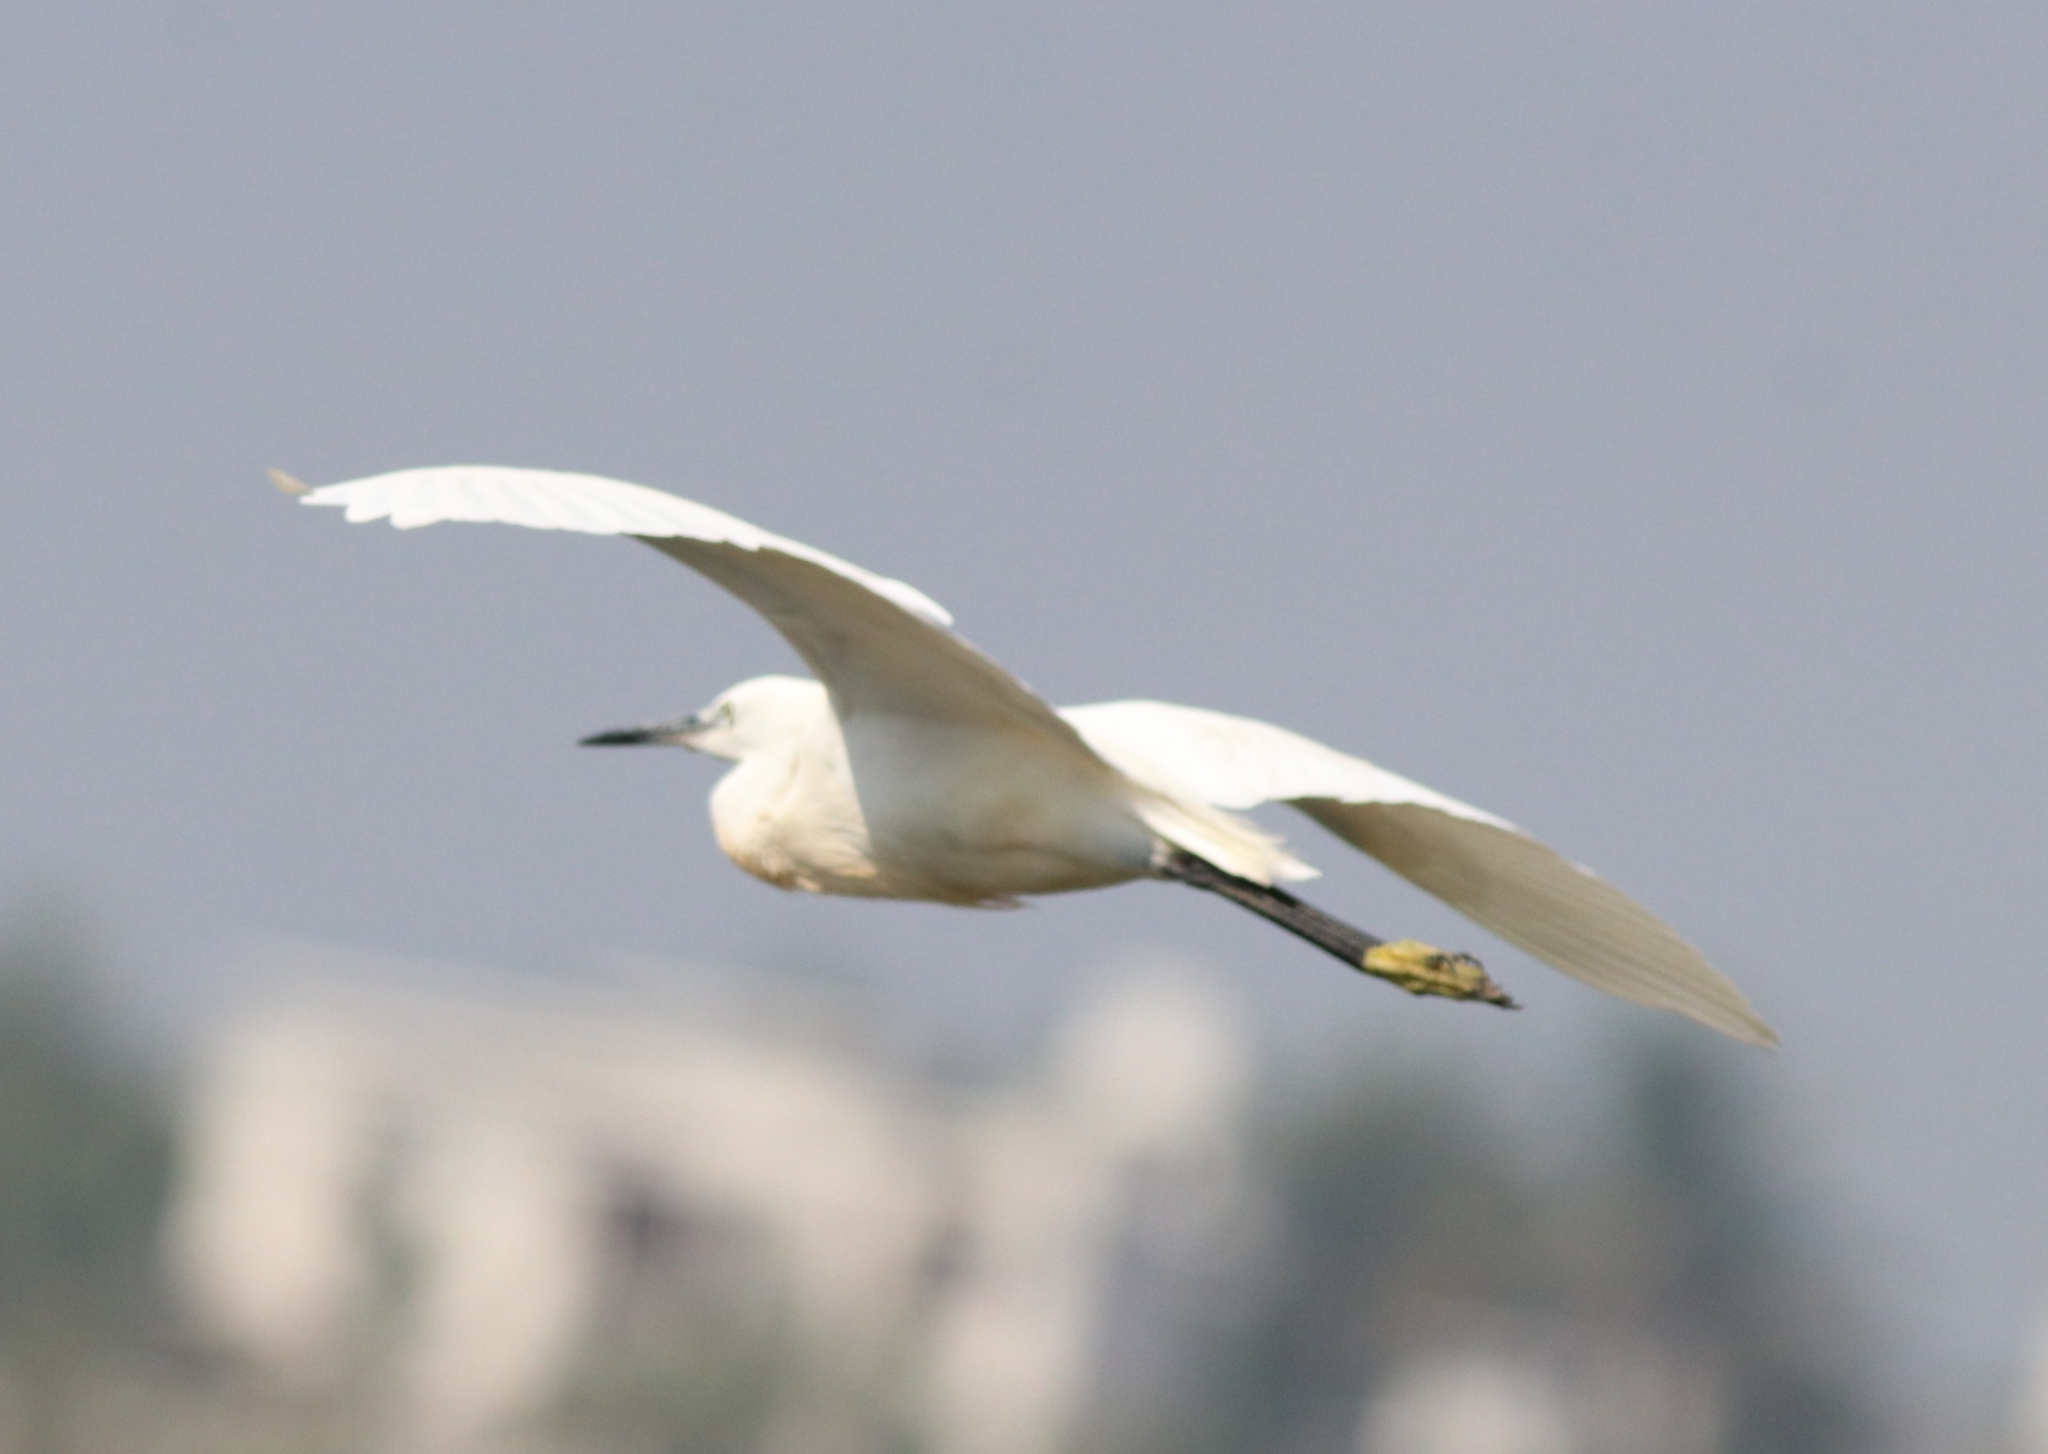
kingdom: Animalia
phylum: Chordata
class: Aves
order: Pelecaniformes
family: Ardeidae
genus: Egretta
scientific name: Egretta garzetta
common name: Little egret
